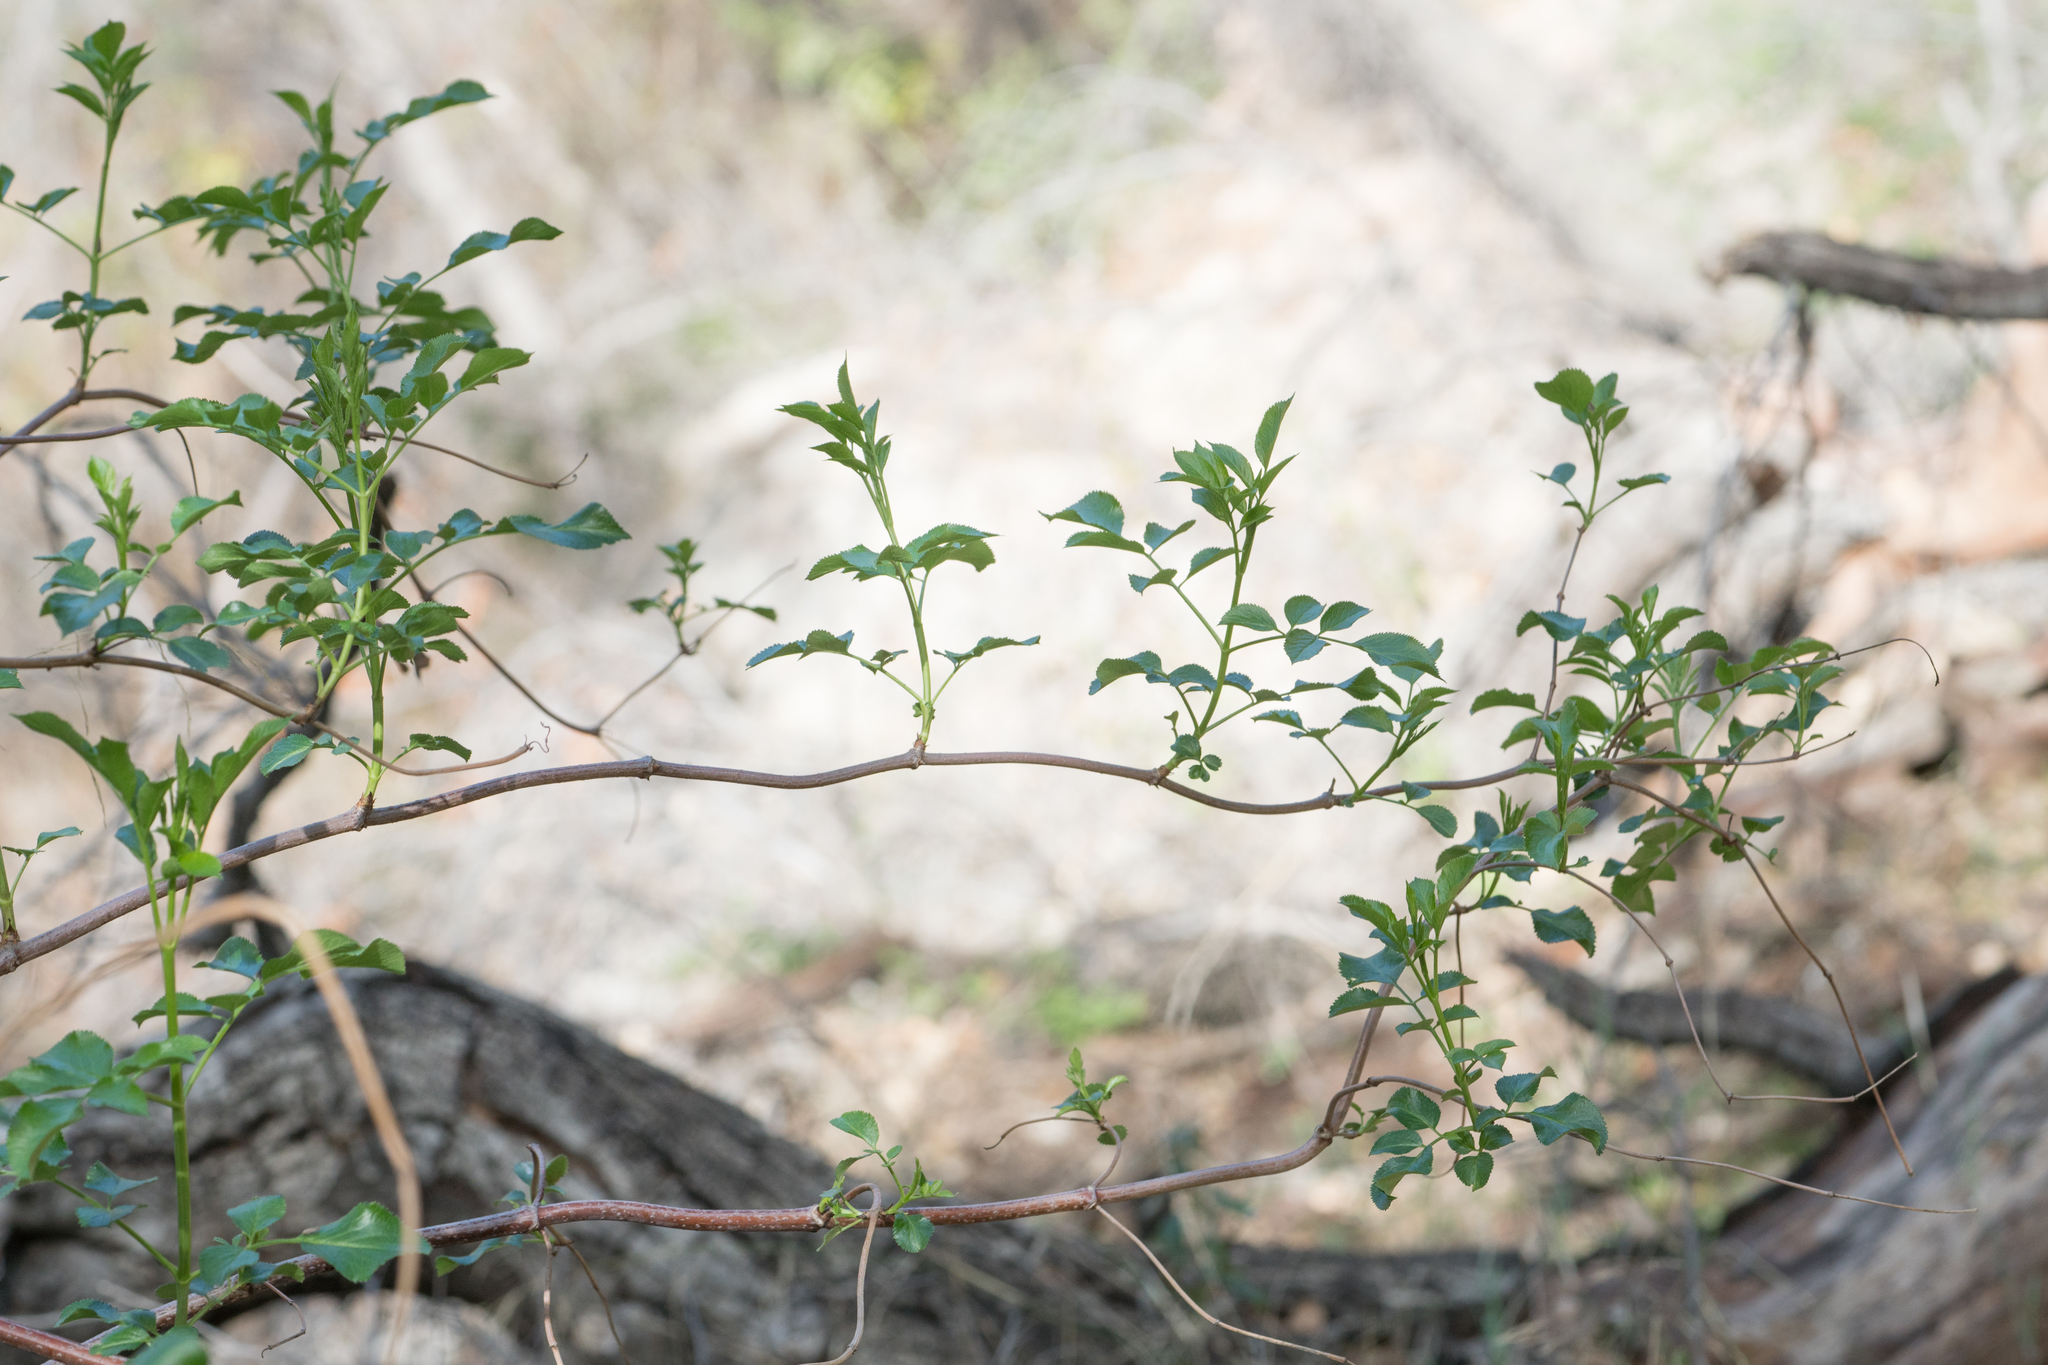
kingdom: Plantae
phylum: Tracheophyta
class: Magnoliopsida
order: Dipsacales
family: Viburnaceae
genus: Sambucus
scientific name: Sambucus cerulea
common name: Blue elder
